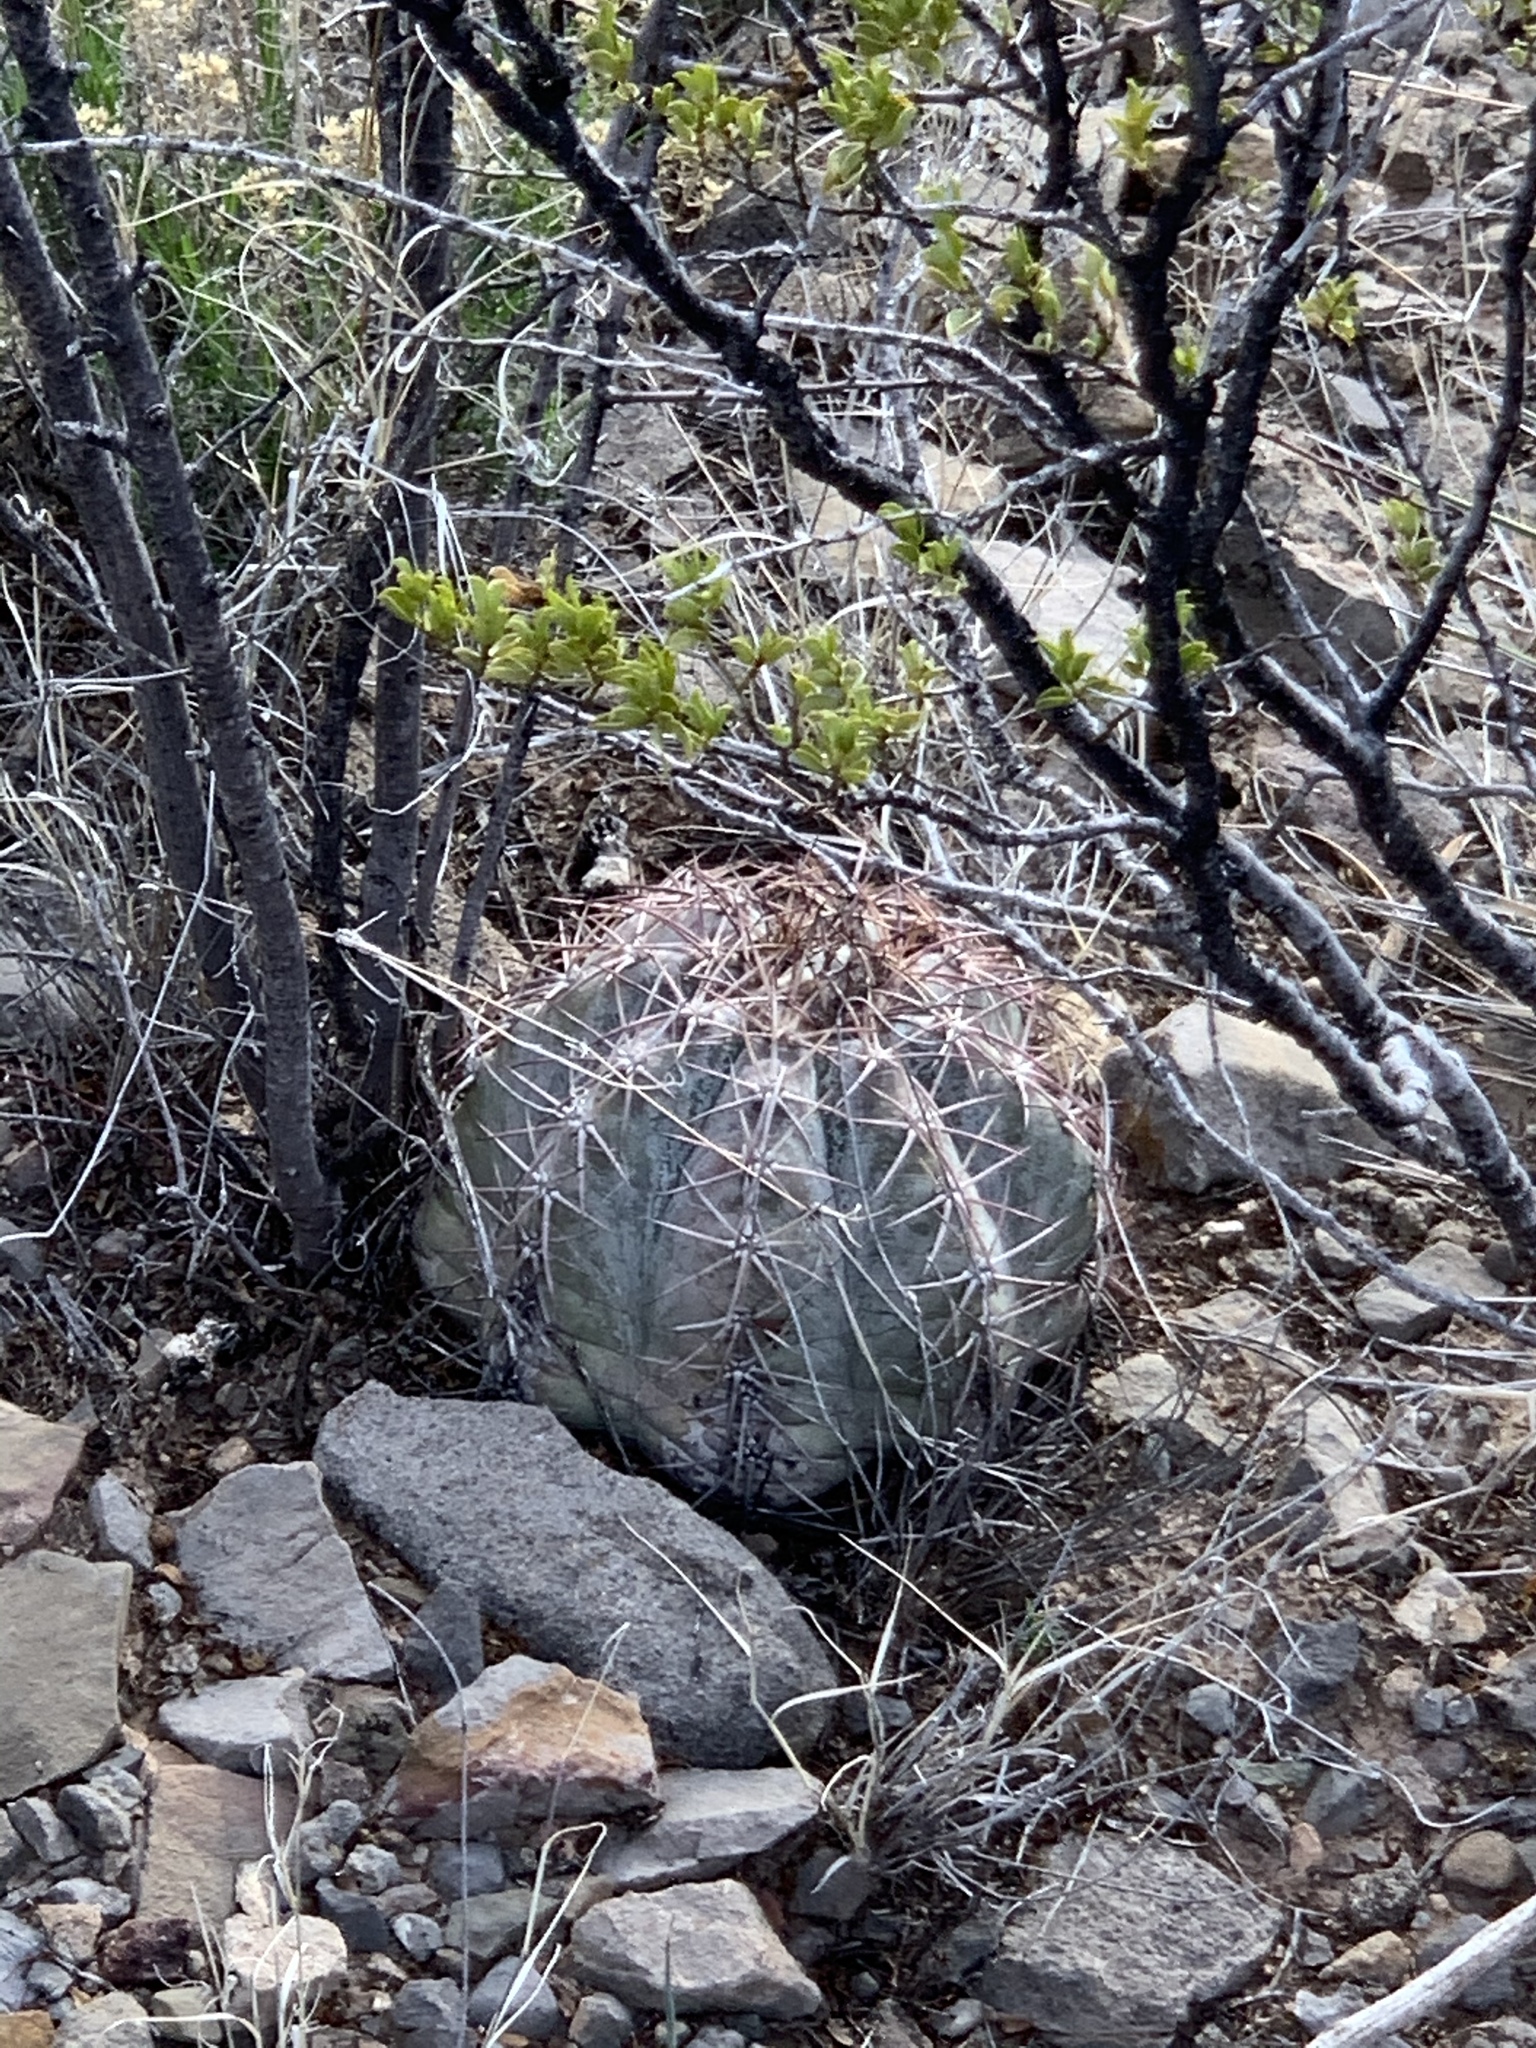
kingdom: Plantae
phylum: Tracheophyta
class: Magnoliopsida
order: Caryophyllales
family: Cactaceae
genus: Echinocactus
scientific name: Echinocactus horizonthalonius
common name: Devilshead
